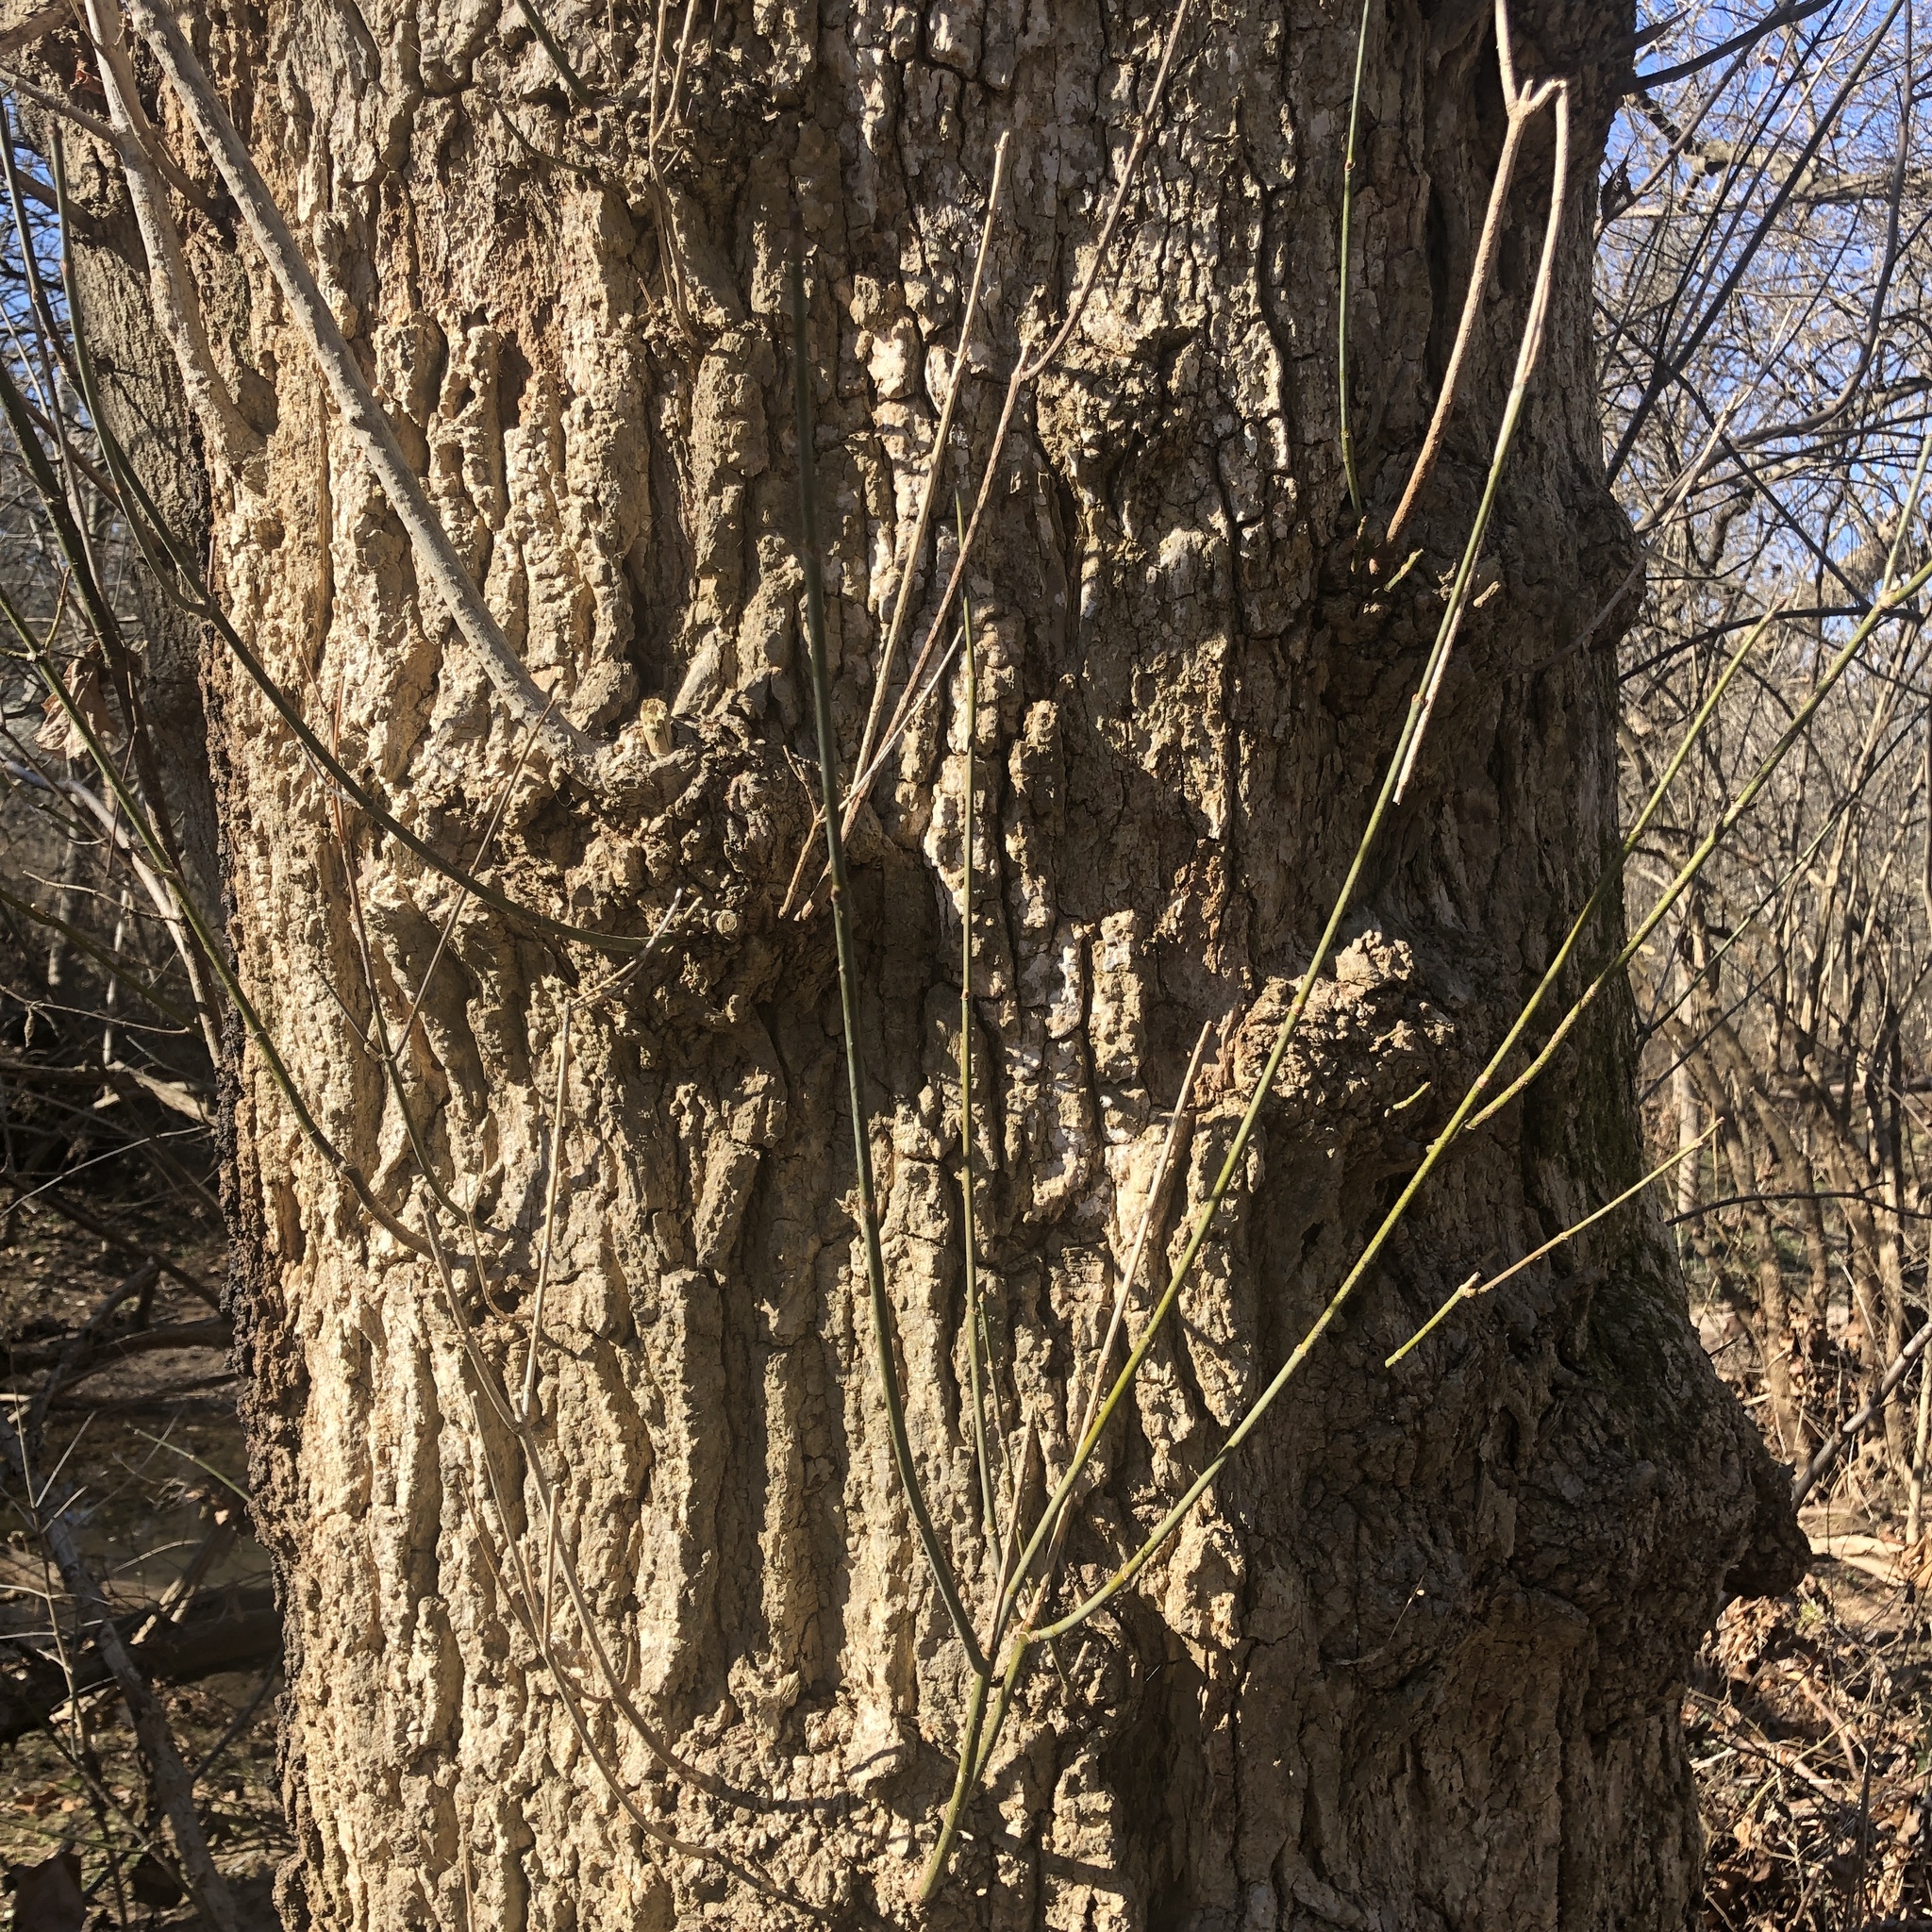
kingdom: Plantae
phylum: Tracheophyta
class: Magnoliopsida
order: Sapindales
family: Sapindaceae
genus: Acer
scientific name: Acer negundo
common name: Ashleaf maple
